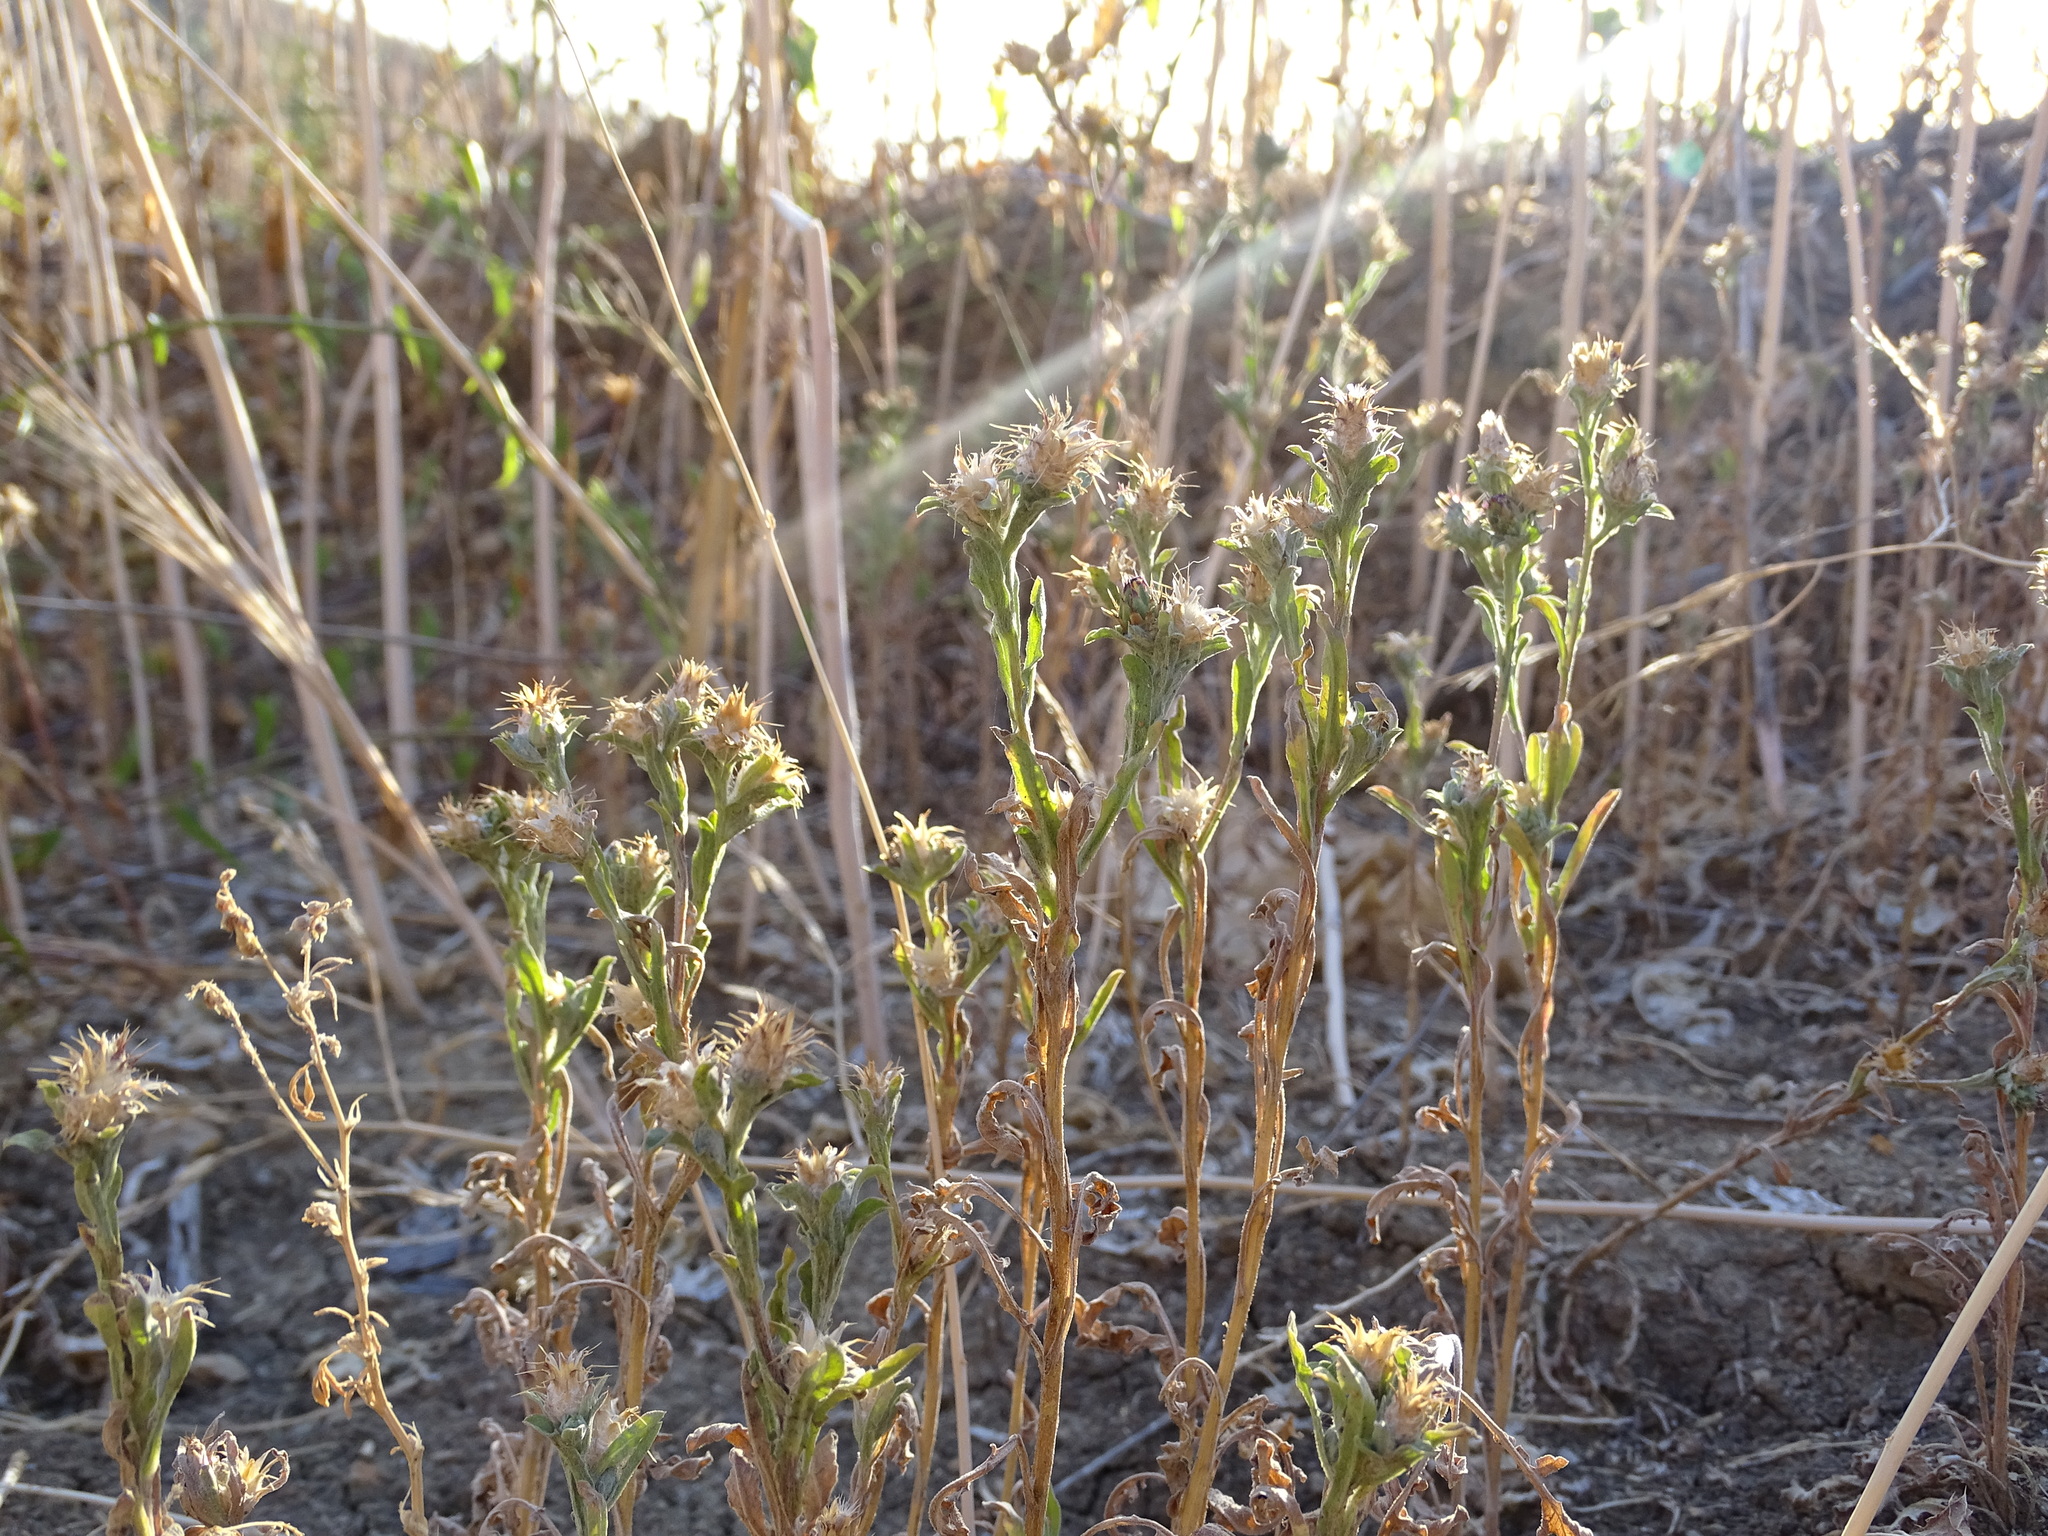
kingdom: Plantae
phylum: Tracheophyta
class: Magnoliopsida
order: Asterales
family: Asteraceae
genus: Centaurea
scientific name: Centaurea melitensis
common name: Maltese star-thistle
